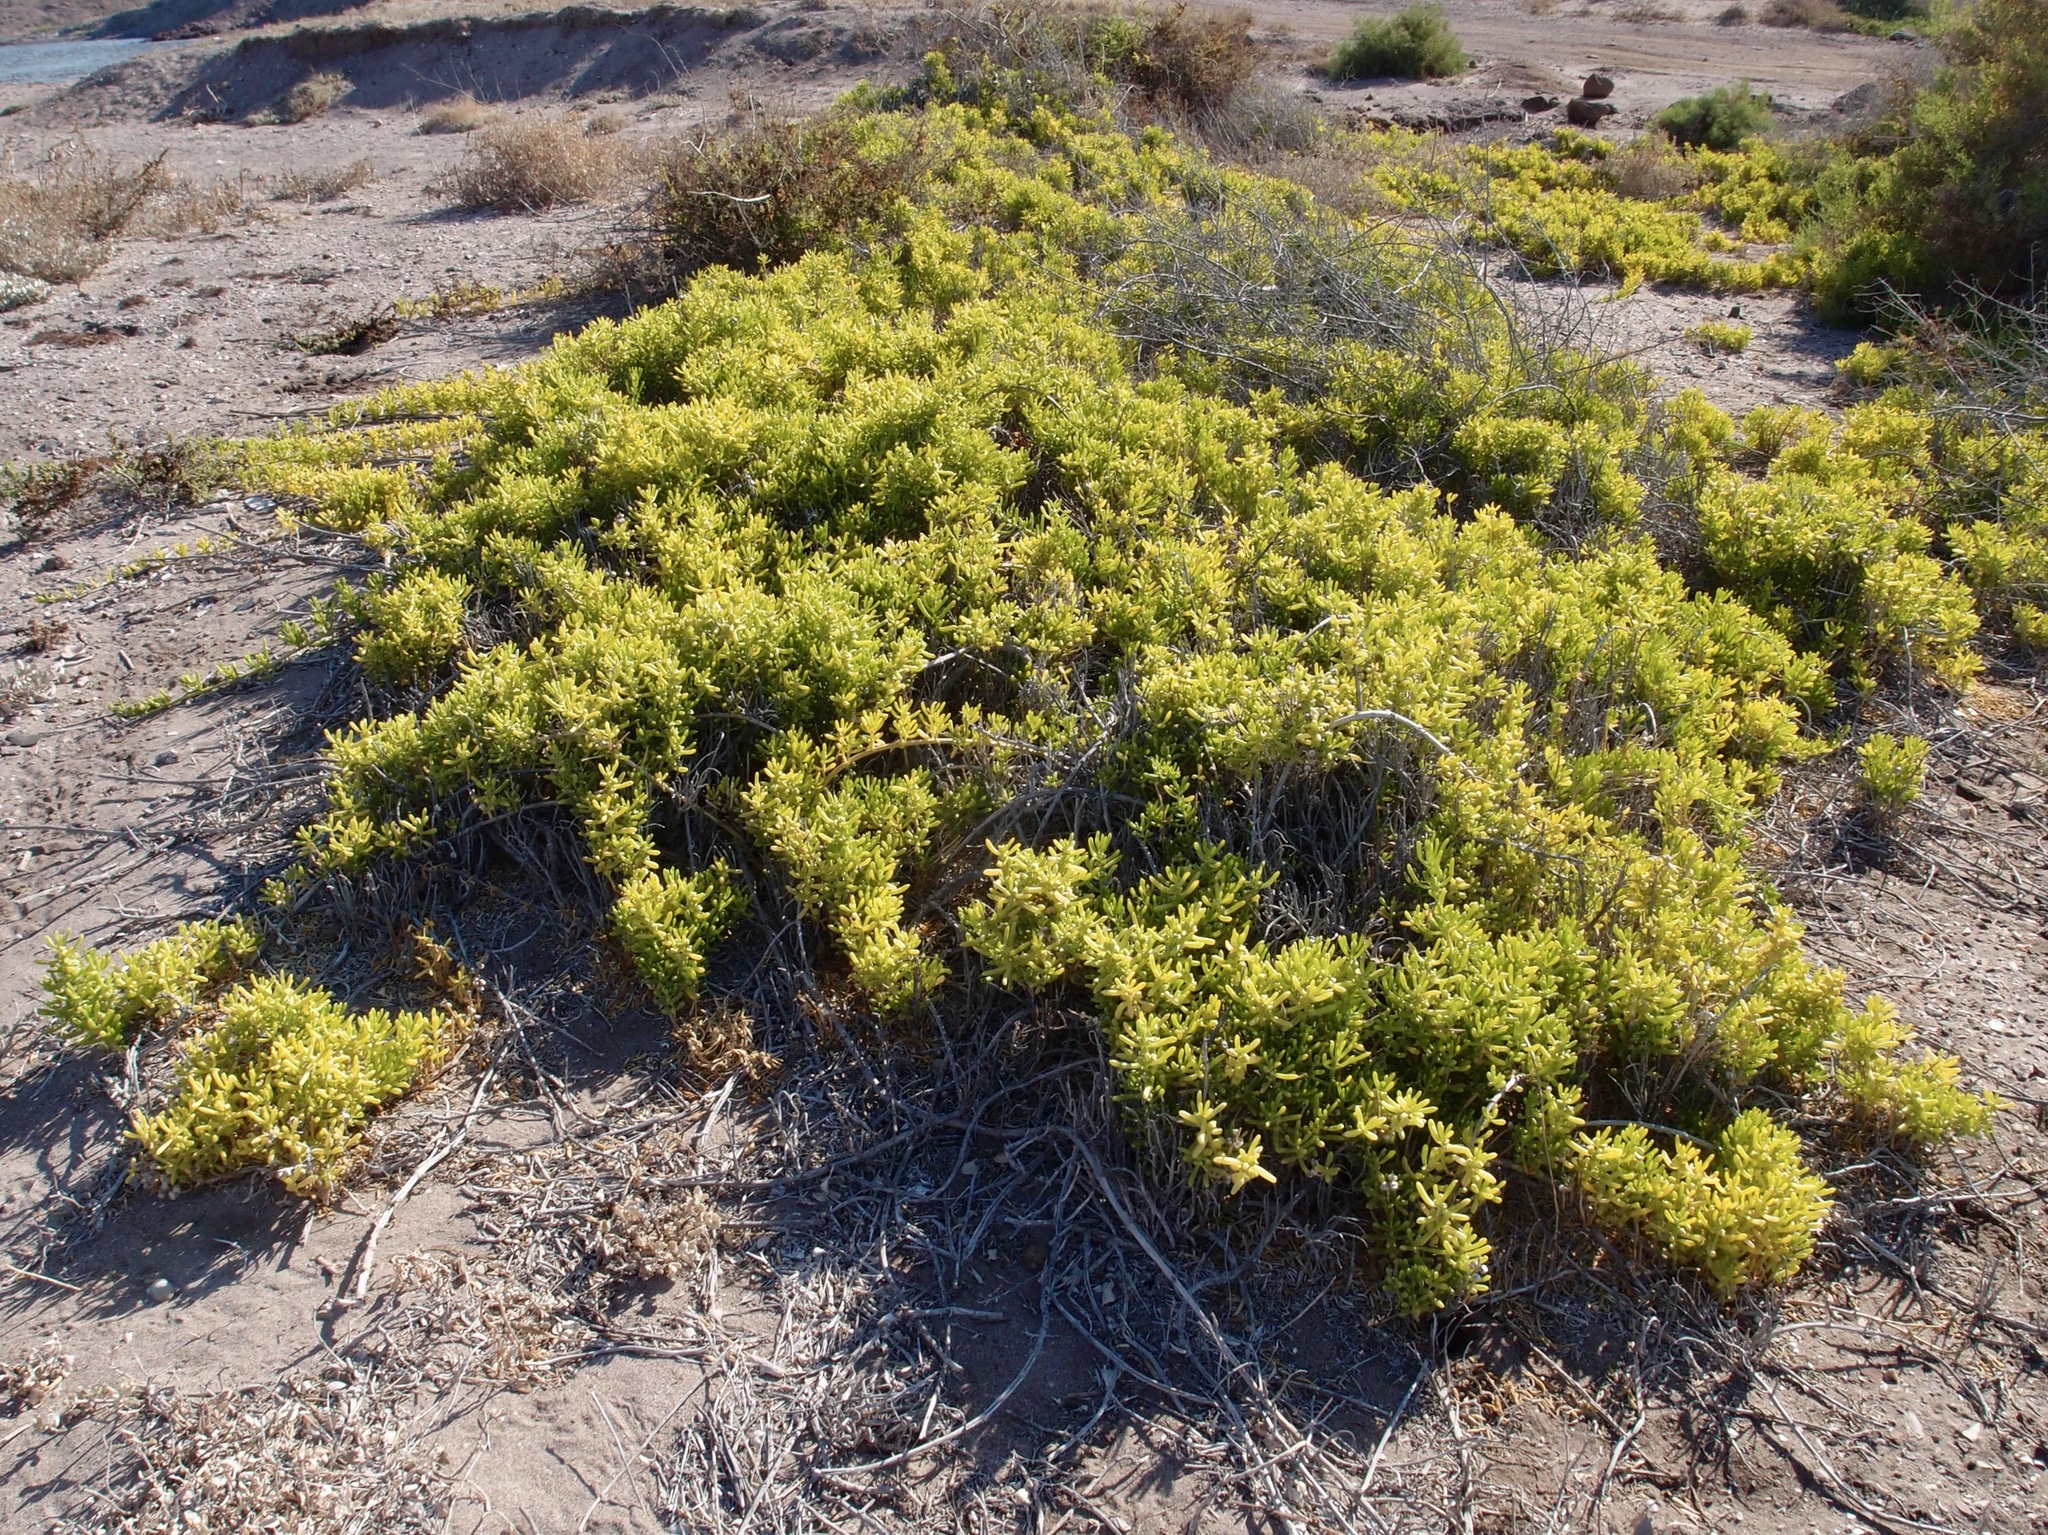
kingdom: Plantae
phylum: Tracheophyta
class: Magnoliopsida
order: Brassicales
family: Bataceae
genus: Batis
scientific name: Batis maritima
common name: Turtleweed
